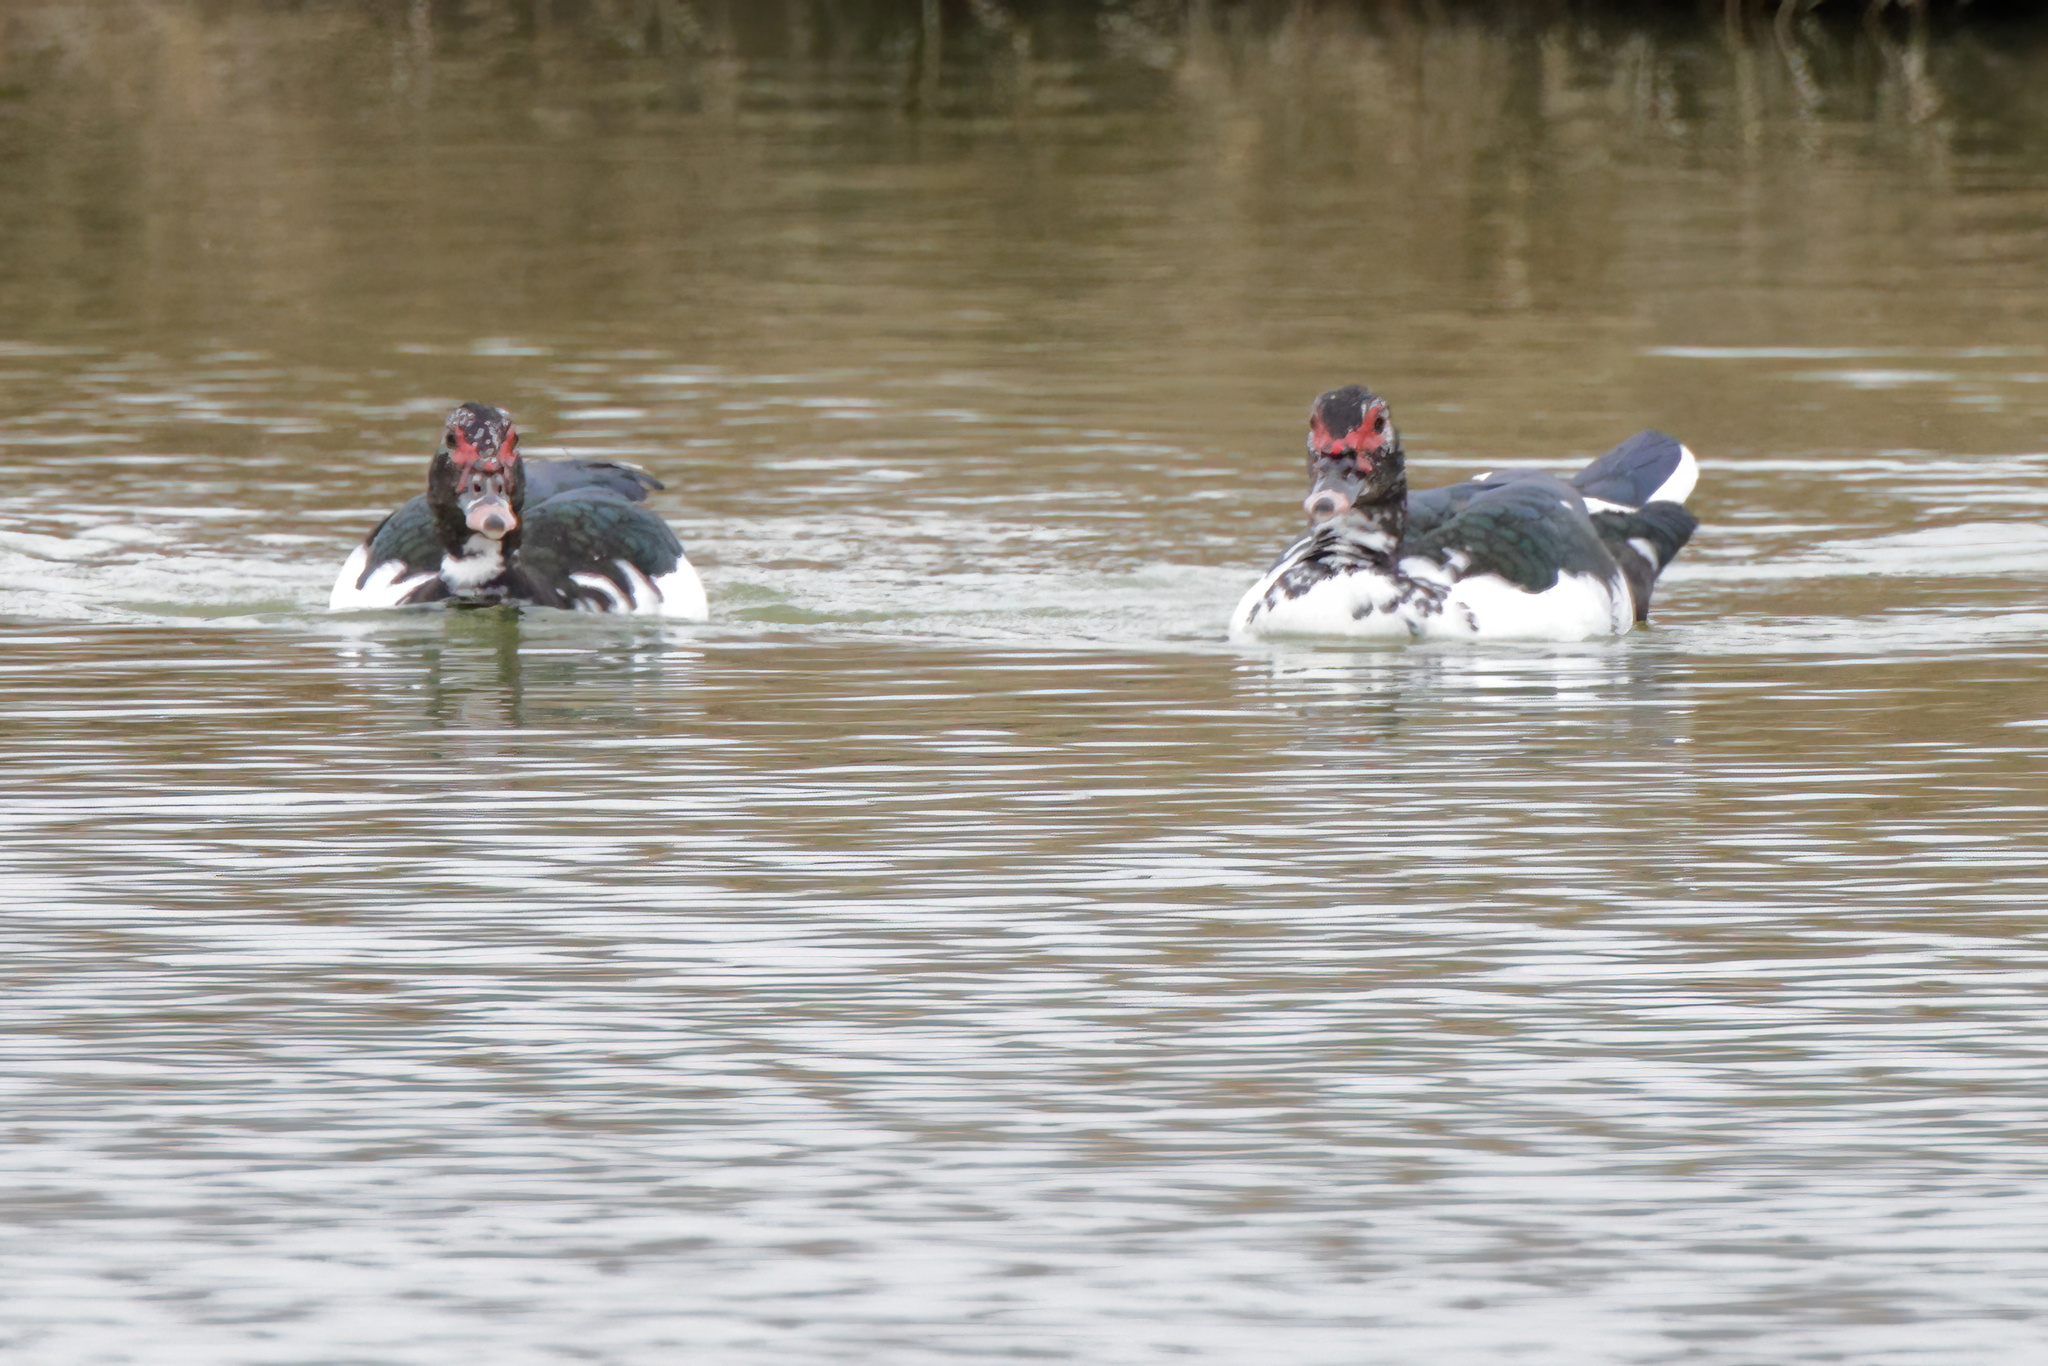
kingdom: Animalia
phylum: Chordata
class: Aves
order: Anseriformes
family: Anatidae
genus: Cairina
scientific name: Cairina moschata
